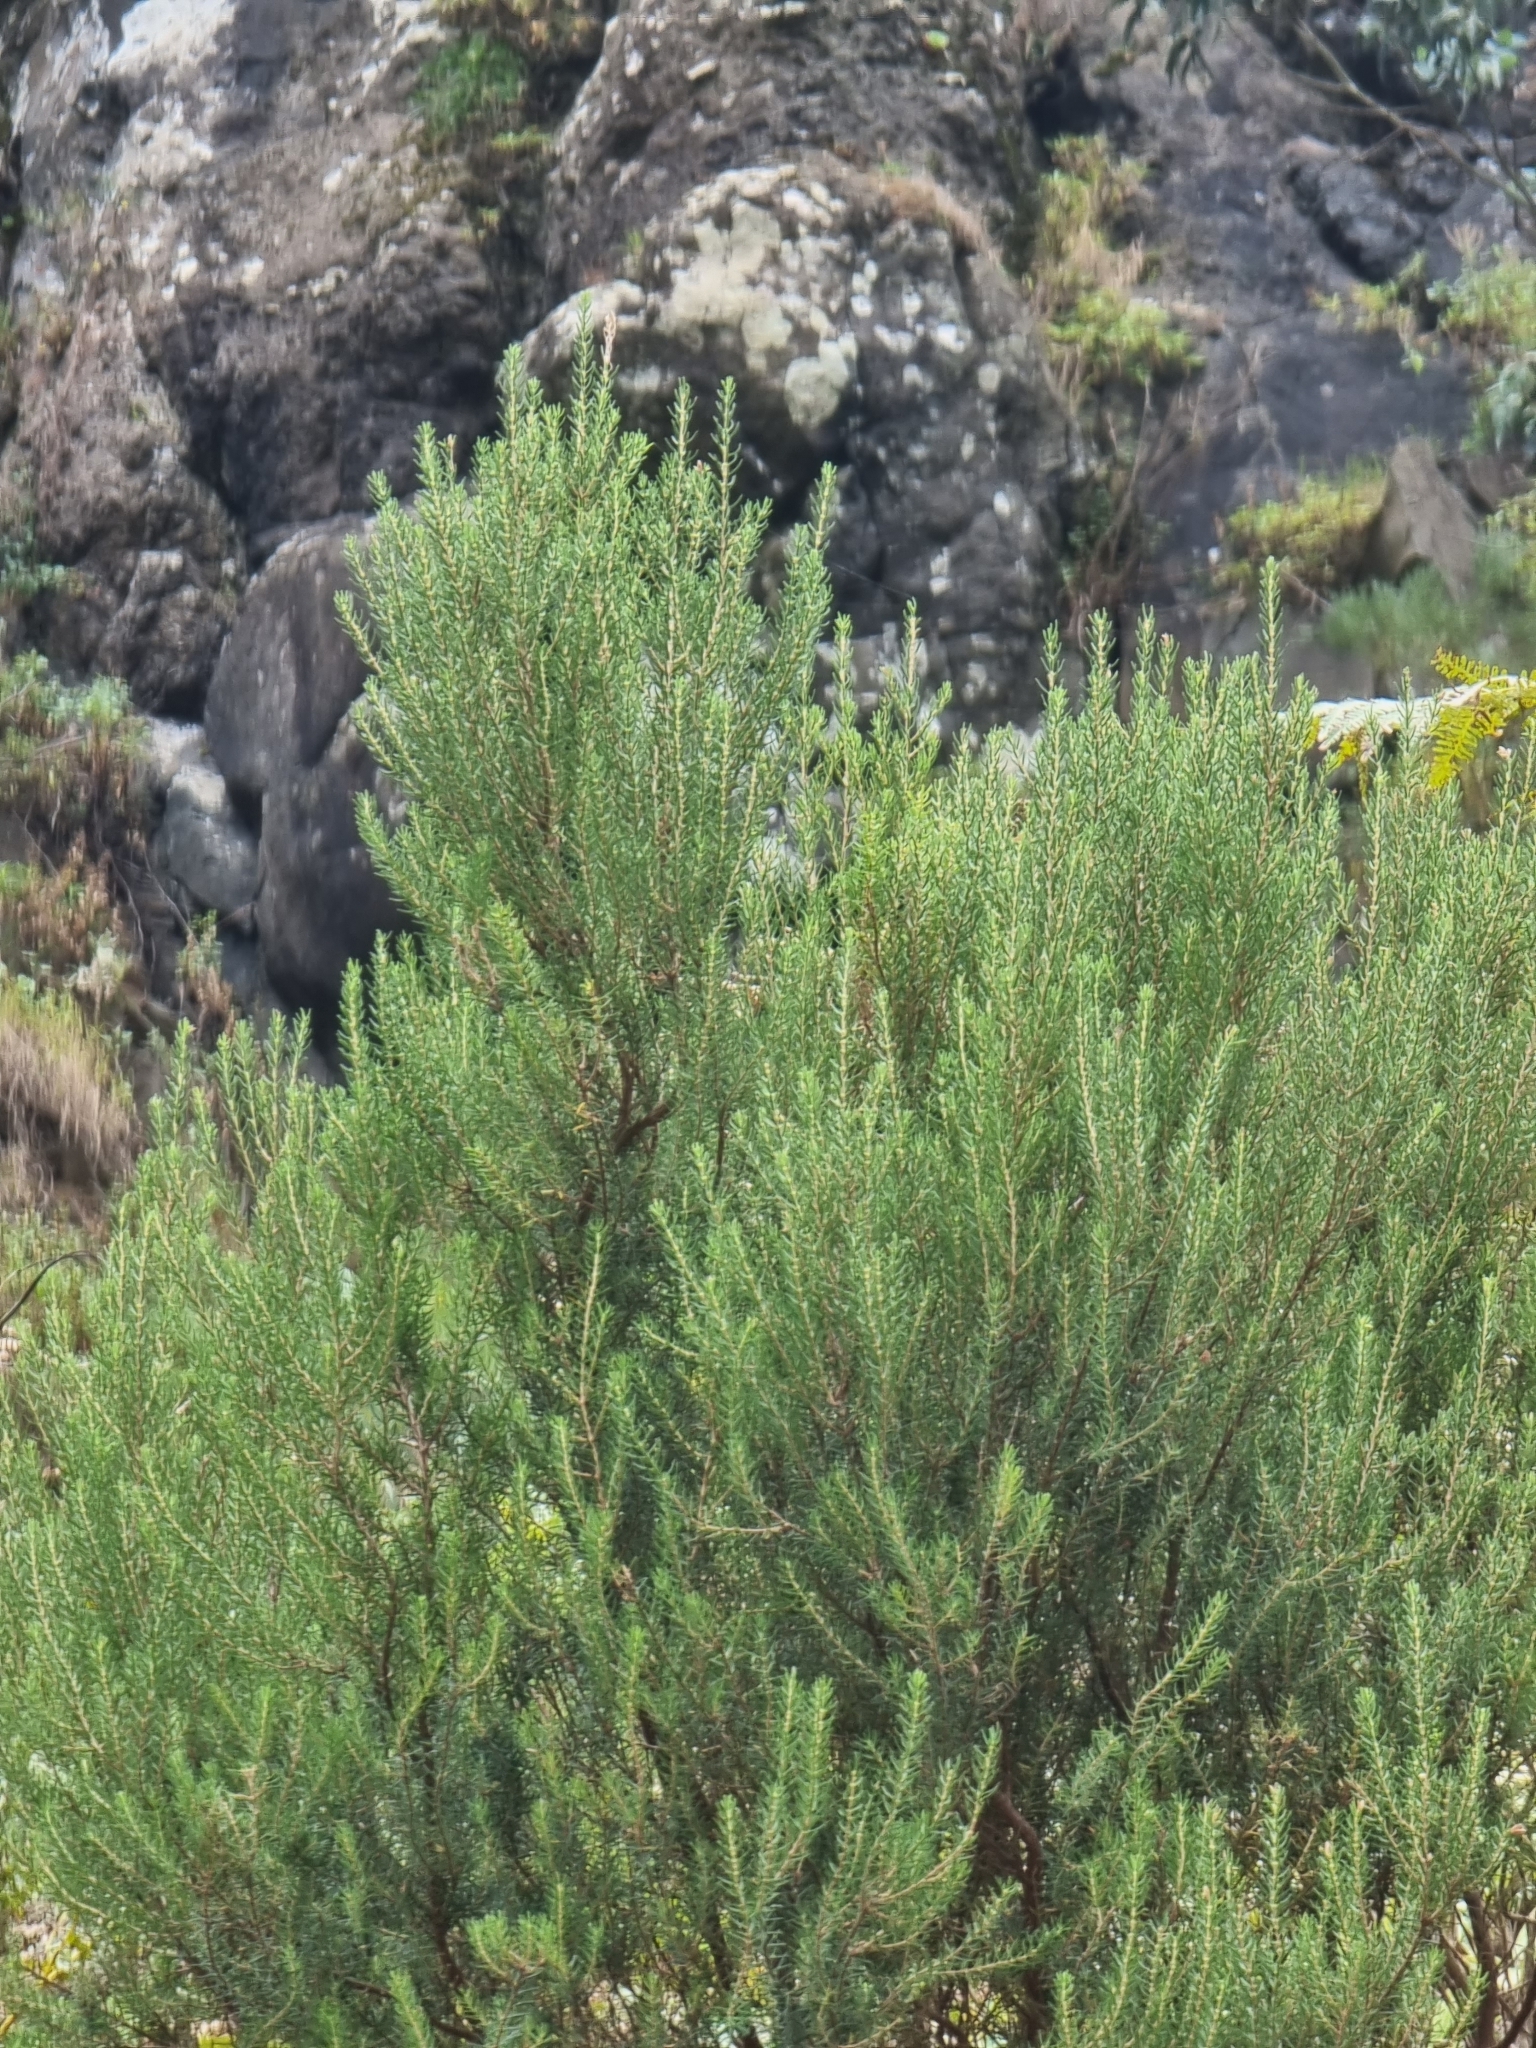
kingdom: Plantae
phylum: Tracheophyta
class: Magnoliopsida
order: Ericales
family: Ericaceae
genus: Erica
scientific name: Erica platycodon
